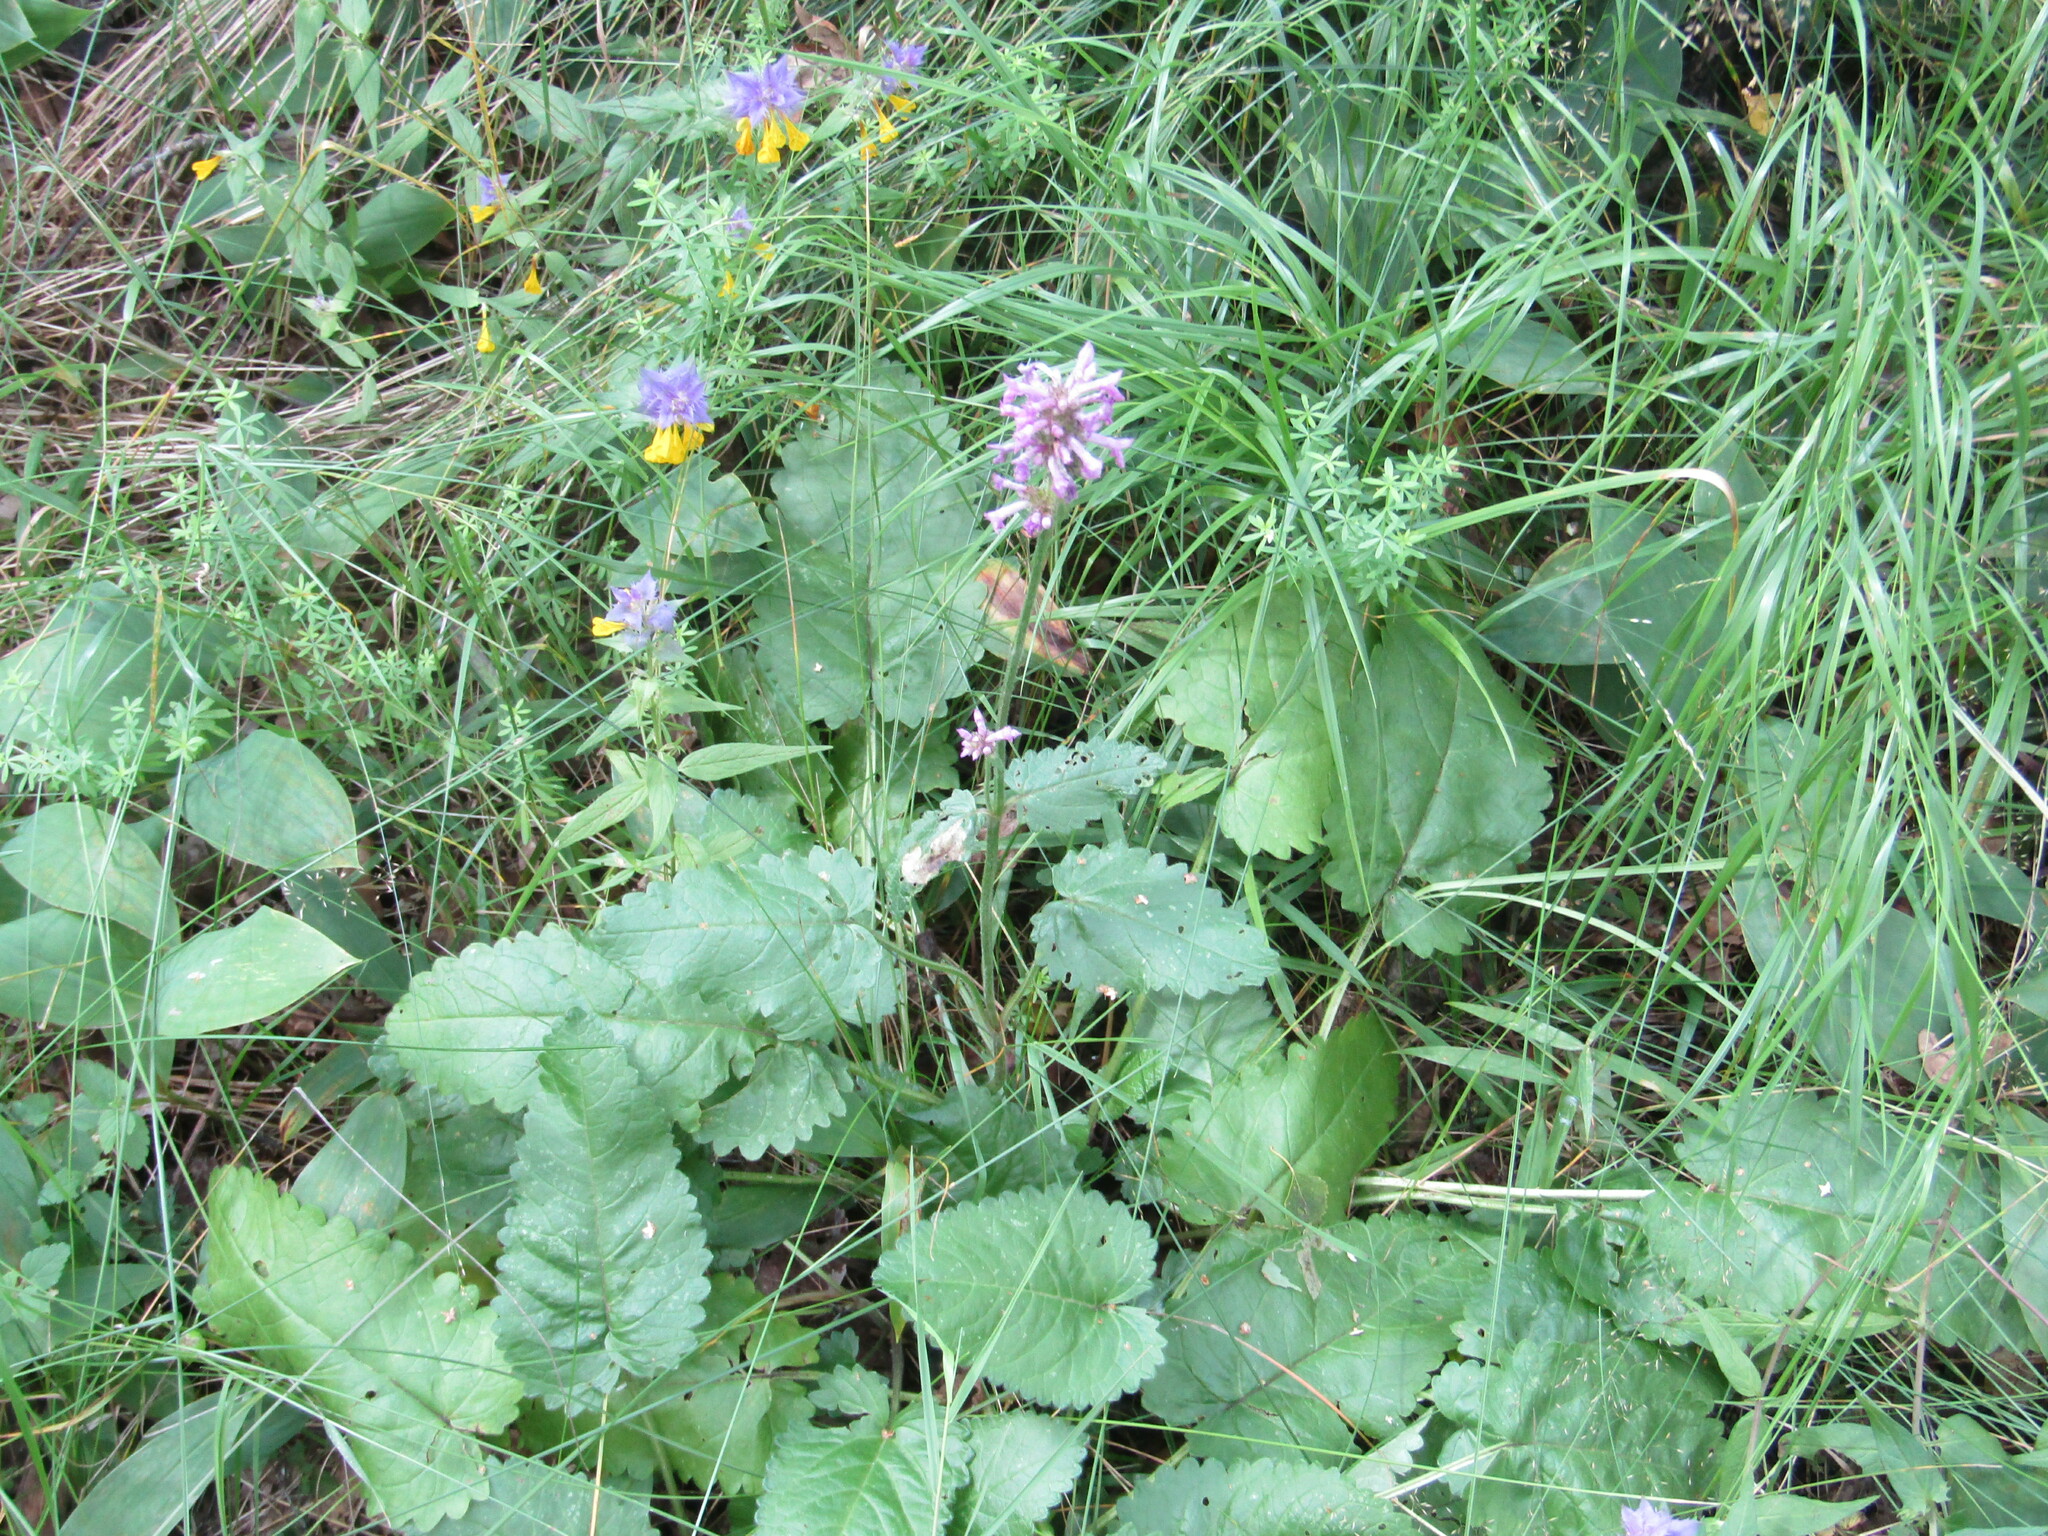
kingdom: Plantae
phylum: Tracheophyta
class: Magnoliopsida
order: Lamiales
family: Lamiaceae
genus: Betonica
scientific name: Betonica officinalis
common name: Bishop's-wort
